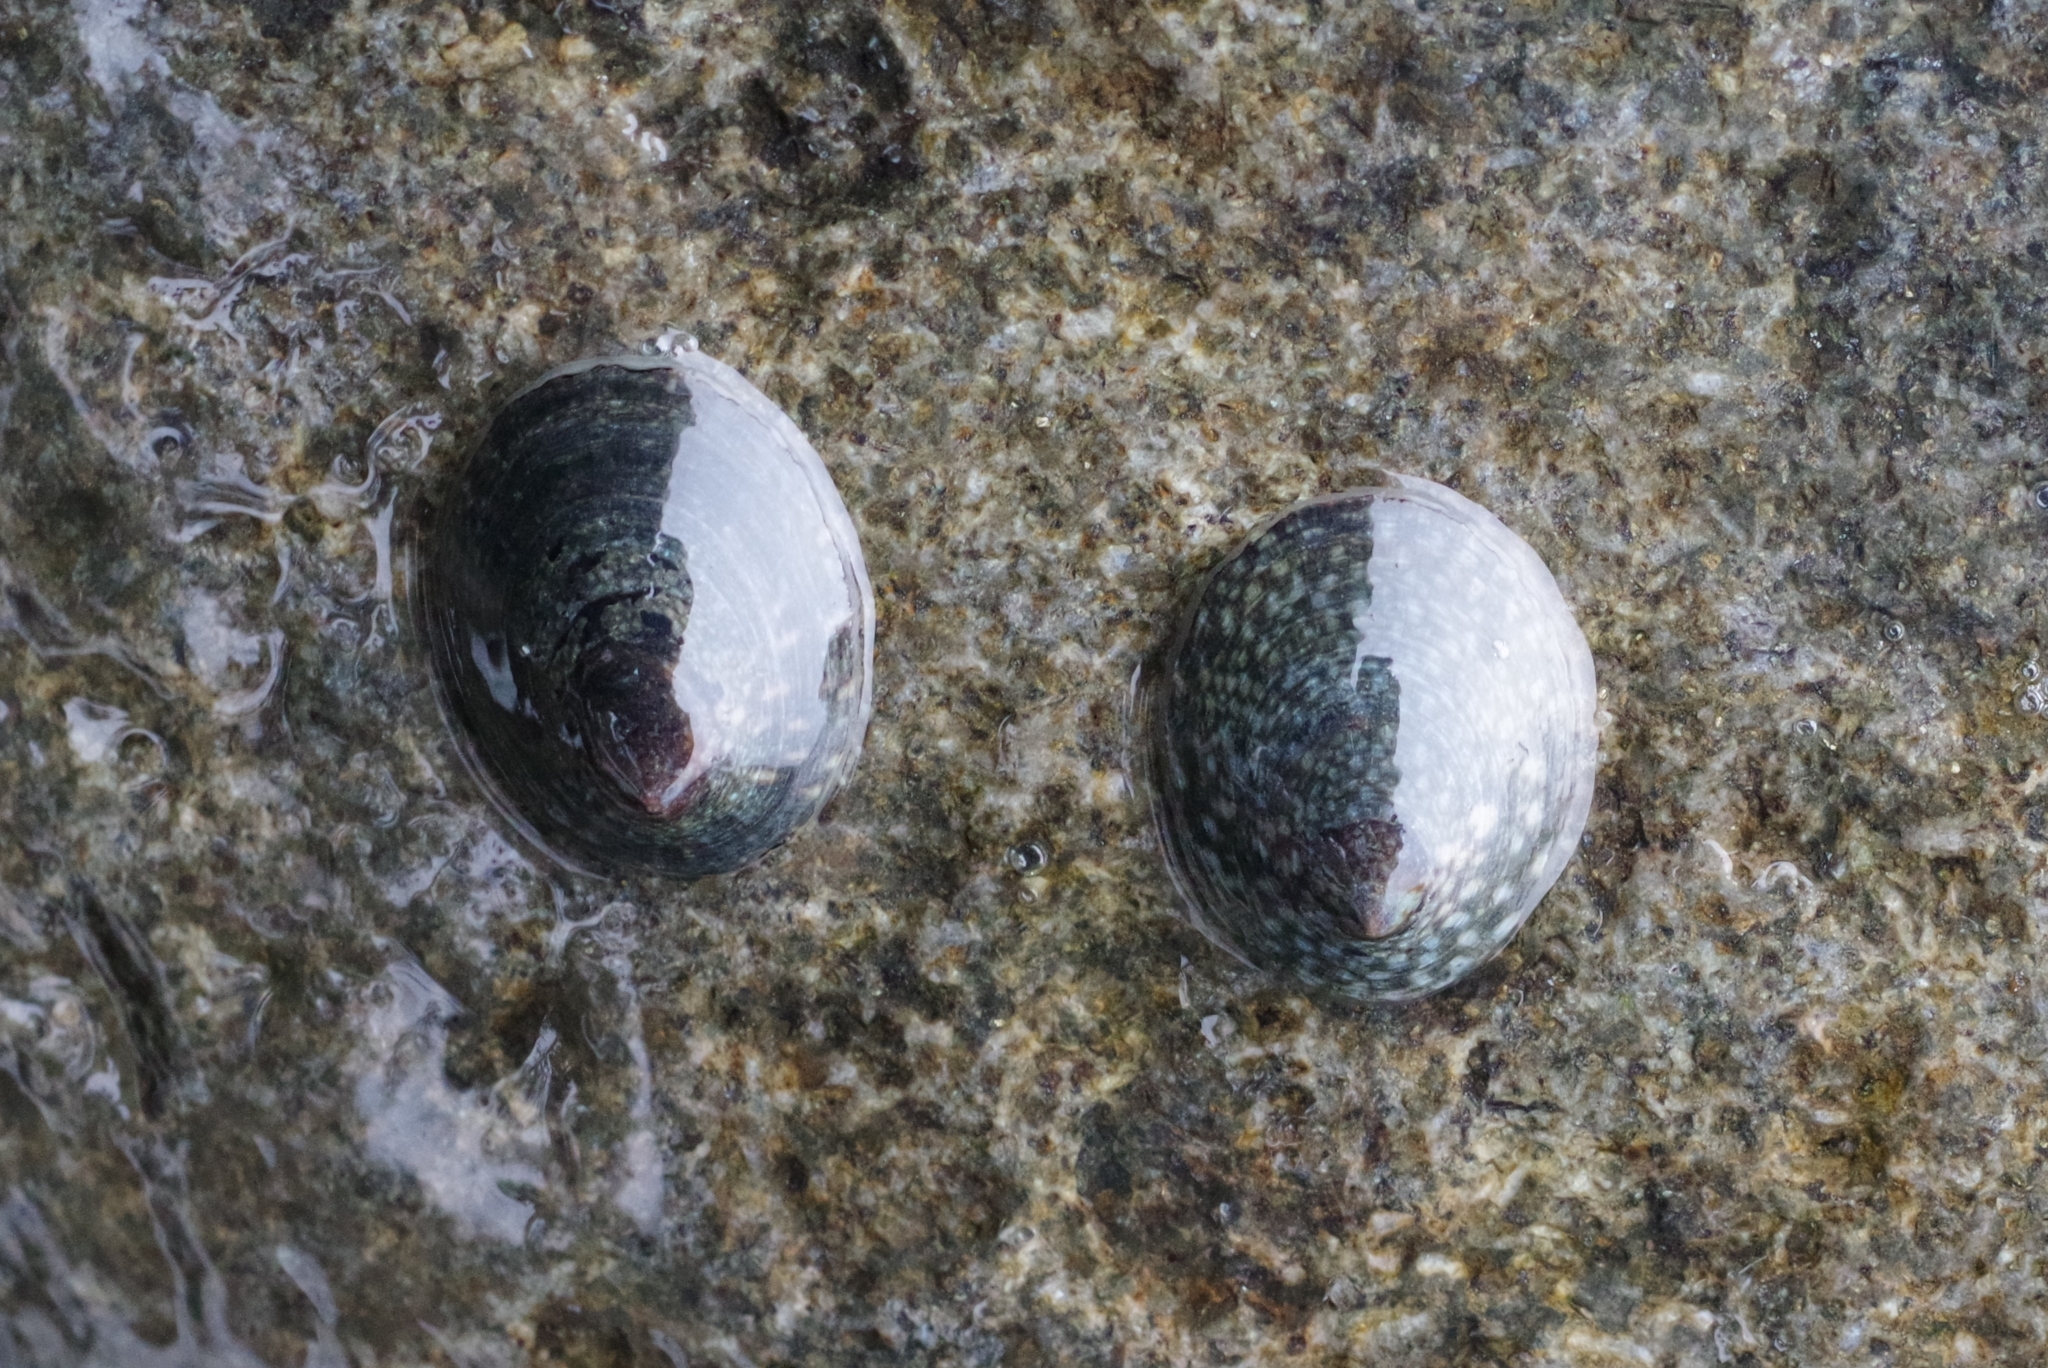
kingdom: Animalia
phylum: Mollusca
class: Gastropoda
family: Lottiidae
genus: Lottia
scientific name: Lottia persona
